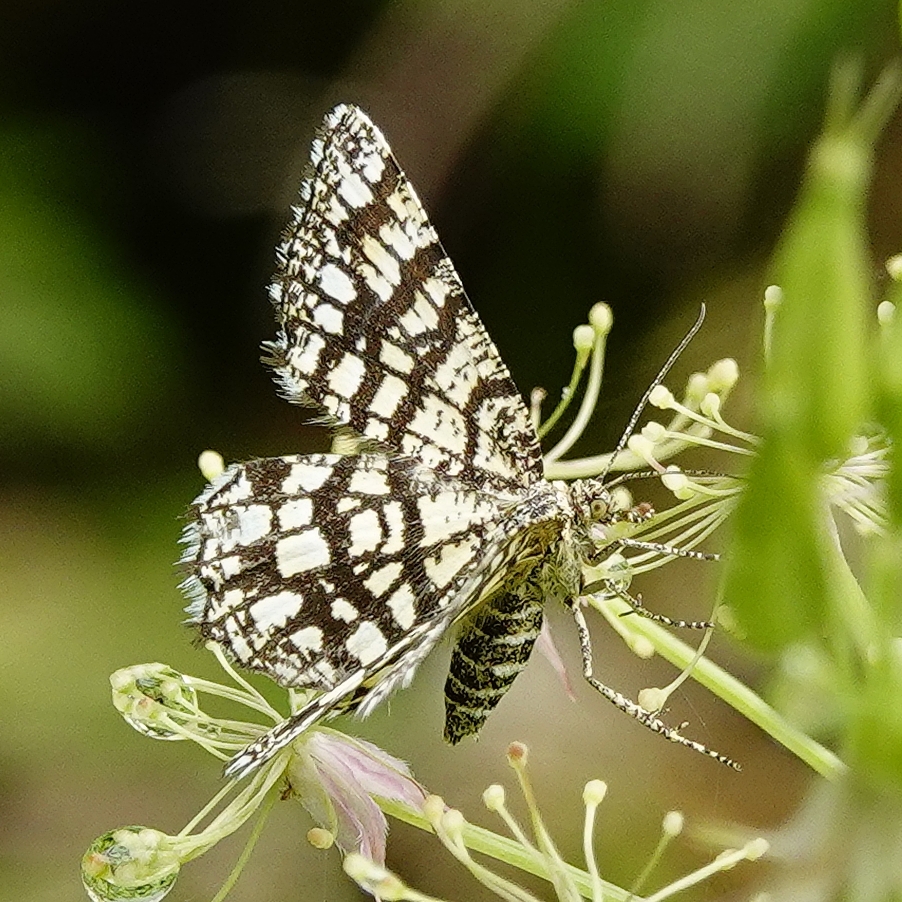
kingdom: Animalia
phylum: Arthropoda
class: Insecta
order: Lepidoptera
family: Geometridae
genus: Chiasmia
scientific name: Chiasmia clathrata
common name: Latticed heath
